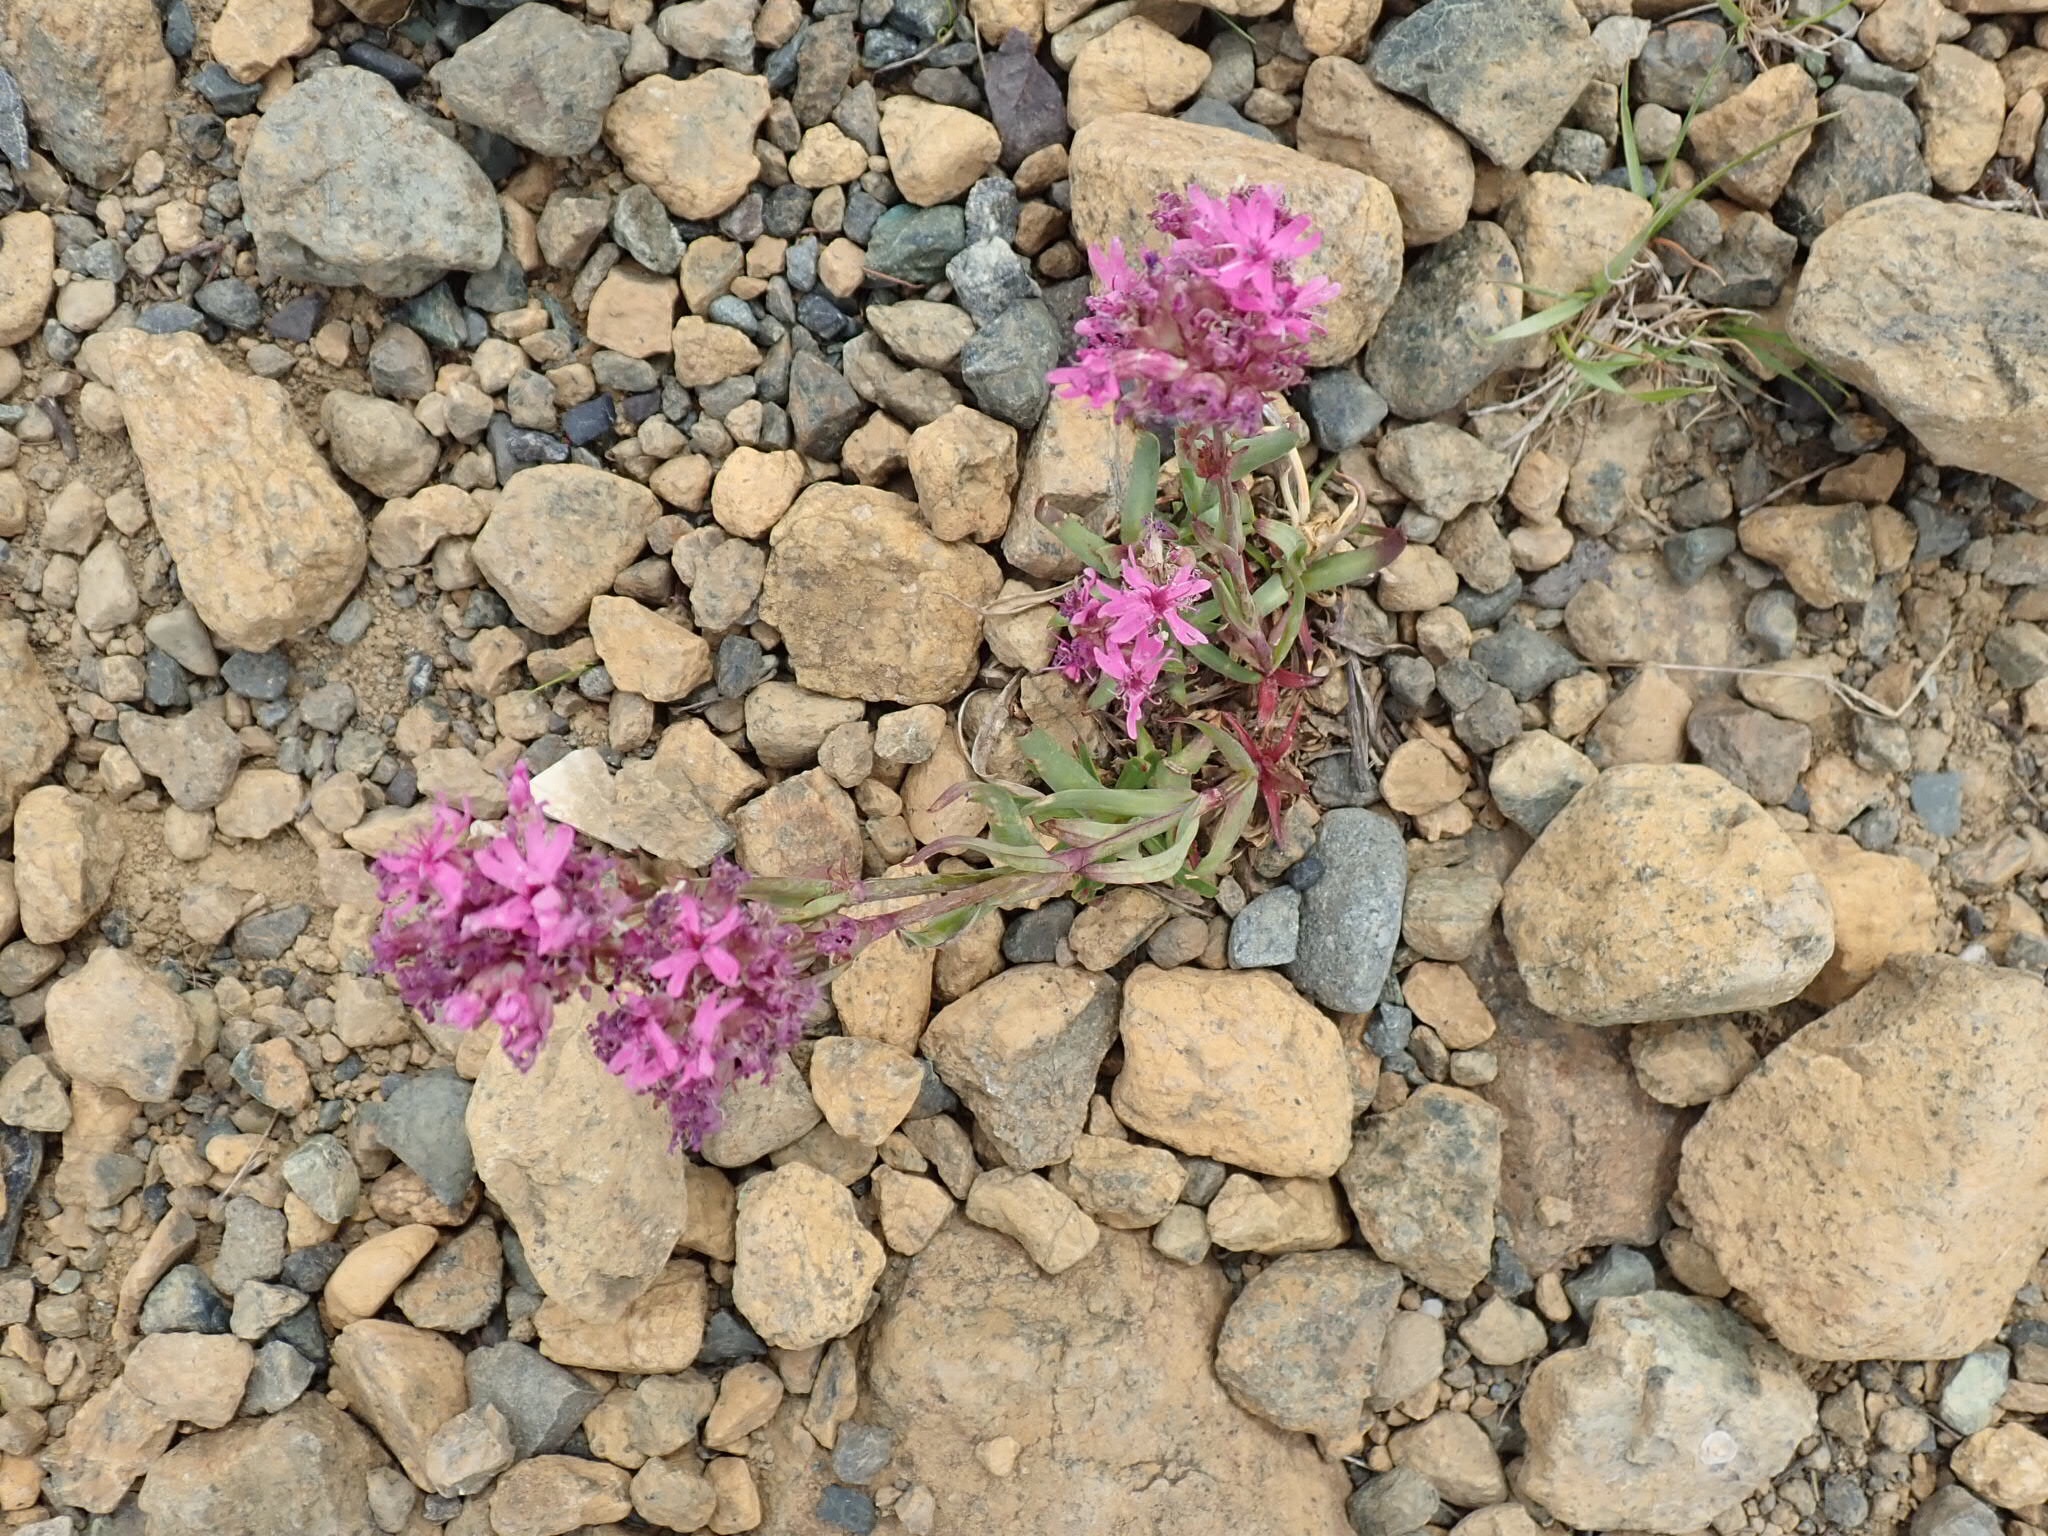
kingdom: Plantae
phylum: Tracheophyta
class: Magnoliopsida
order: Caryophyllales
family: Caryophyllaceae
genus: Viscaria
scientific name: Viscaria alpina
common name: Alpine campion
